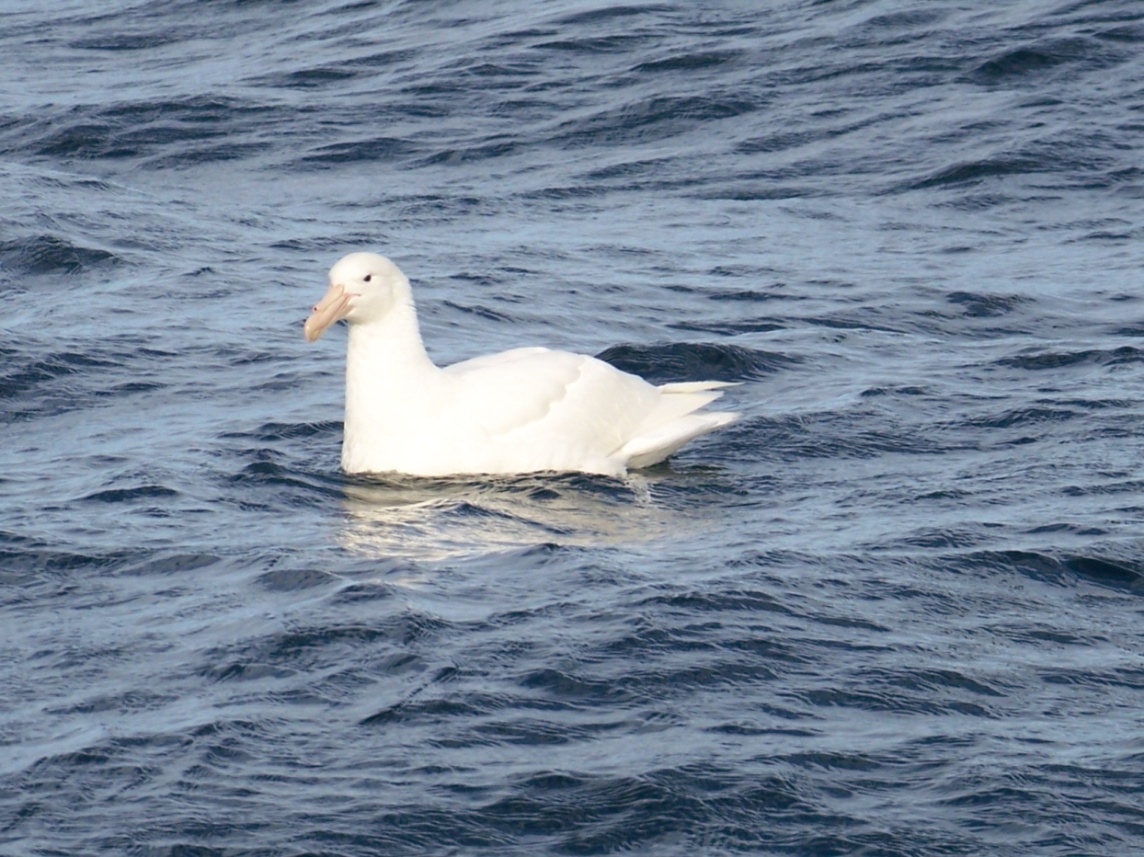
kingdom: Animalia
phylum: Chordata
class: Aves
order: Procellariiformes
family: Procellariidae
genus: Macronectes
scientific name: Macronectes giganteus
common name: Southern giant petrel
